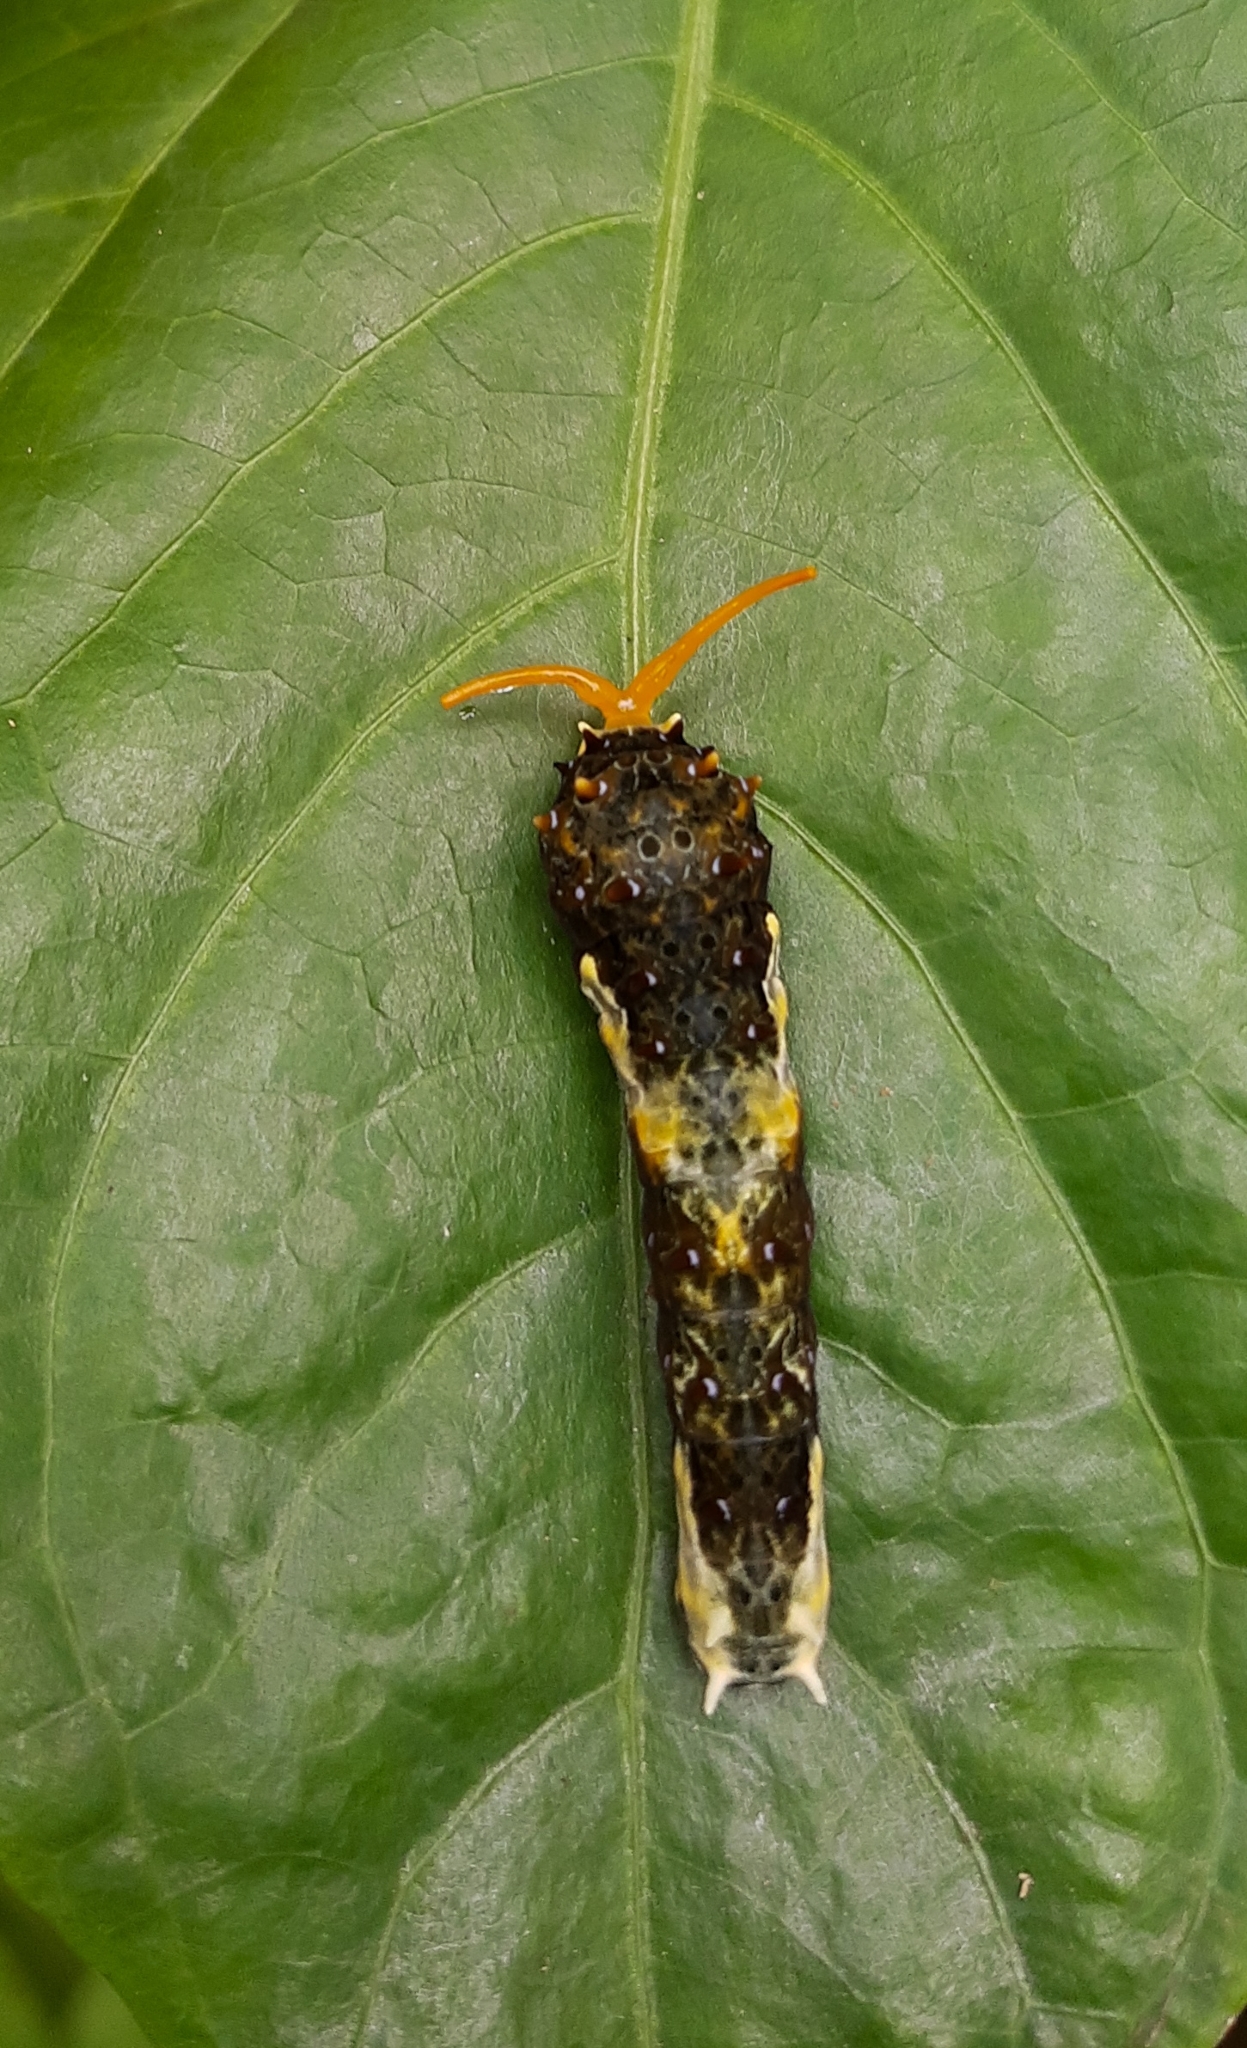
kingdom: Animalia
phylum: Arthropoda
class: Insecta
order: Lepidoptera
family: Papilionidae
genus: Heraclides
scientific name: Heraclides hectorides
